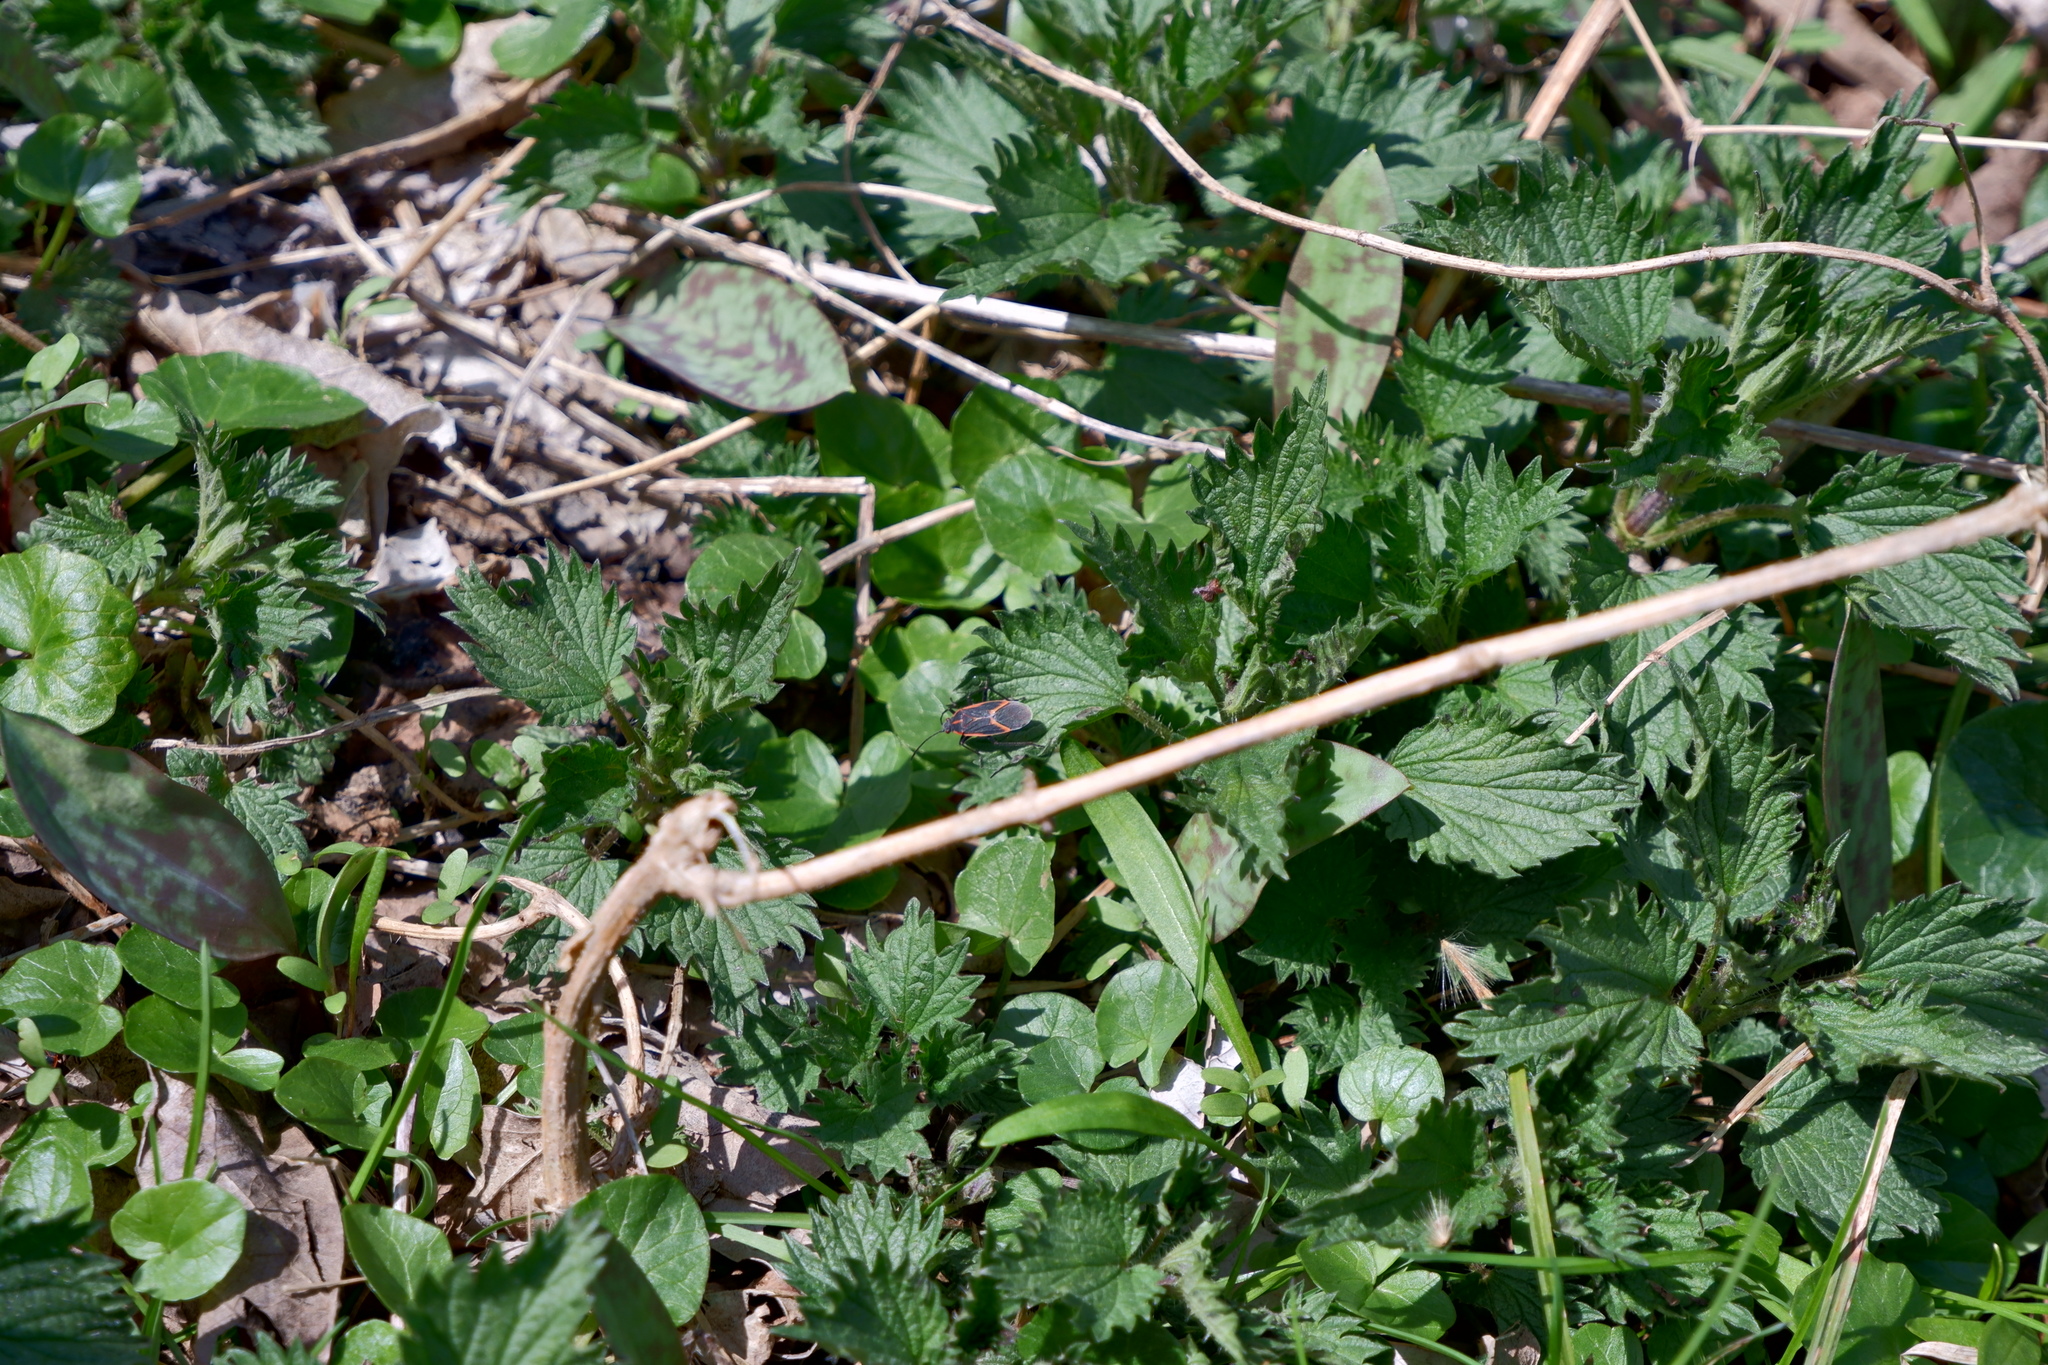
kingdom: Animalia
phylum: Arthropoda
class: Insecta
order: Hemiptera
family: Rhopalidae
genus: Boisea
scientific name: Boisea trivittata
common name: Boxelder bug
